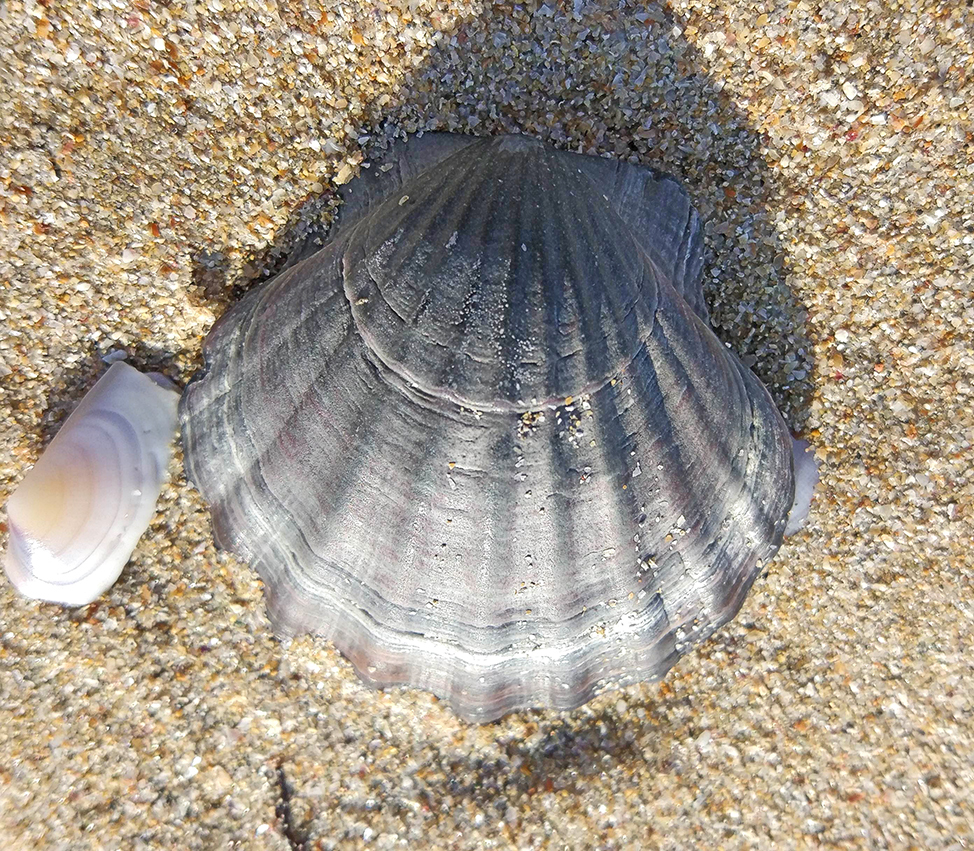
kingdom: Animalia
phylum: Mollusca
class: Bivalvia
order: Pectinida
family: Pectinidae
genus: Flexopecten
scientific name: Flexopecten glaber
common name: Smooth scallop
